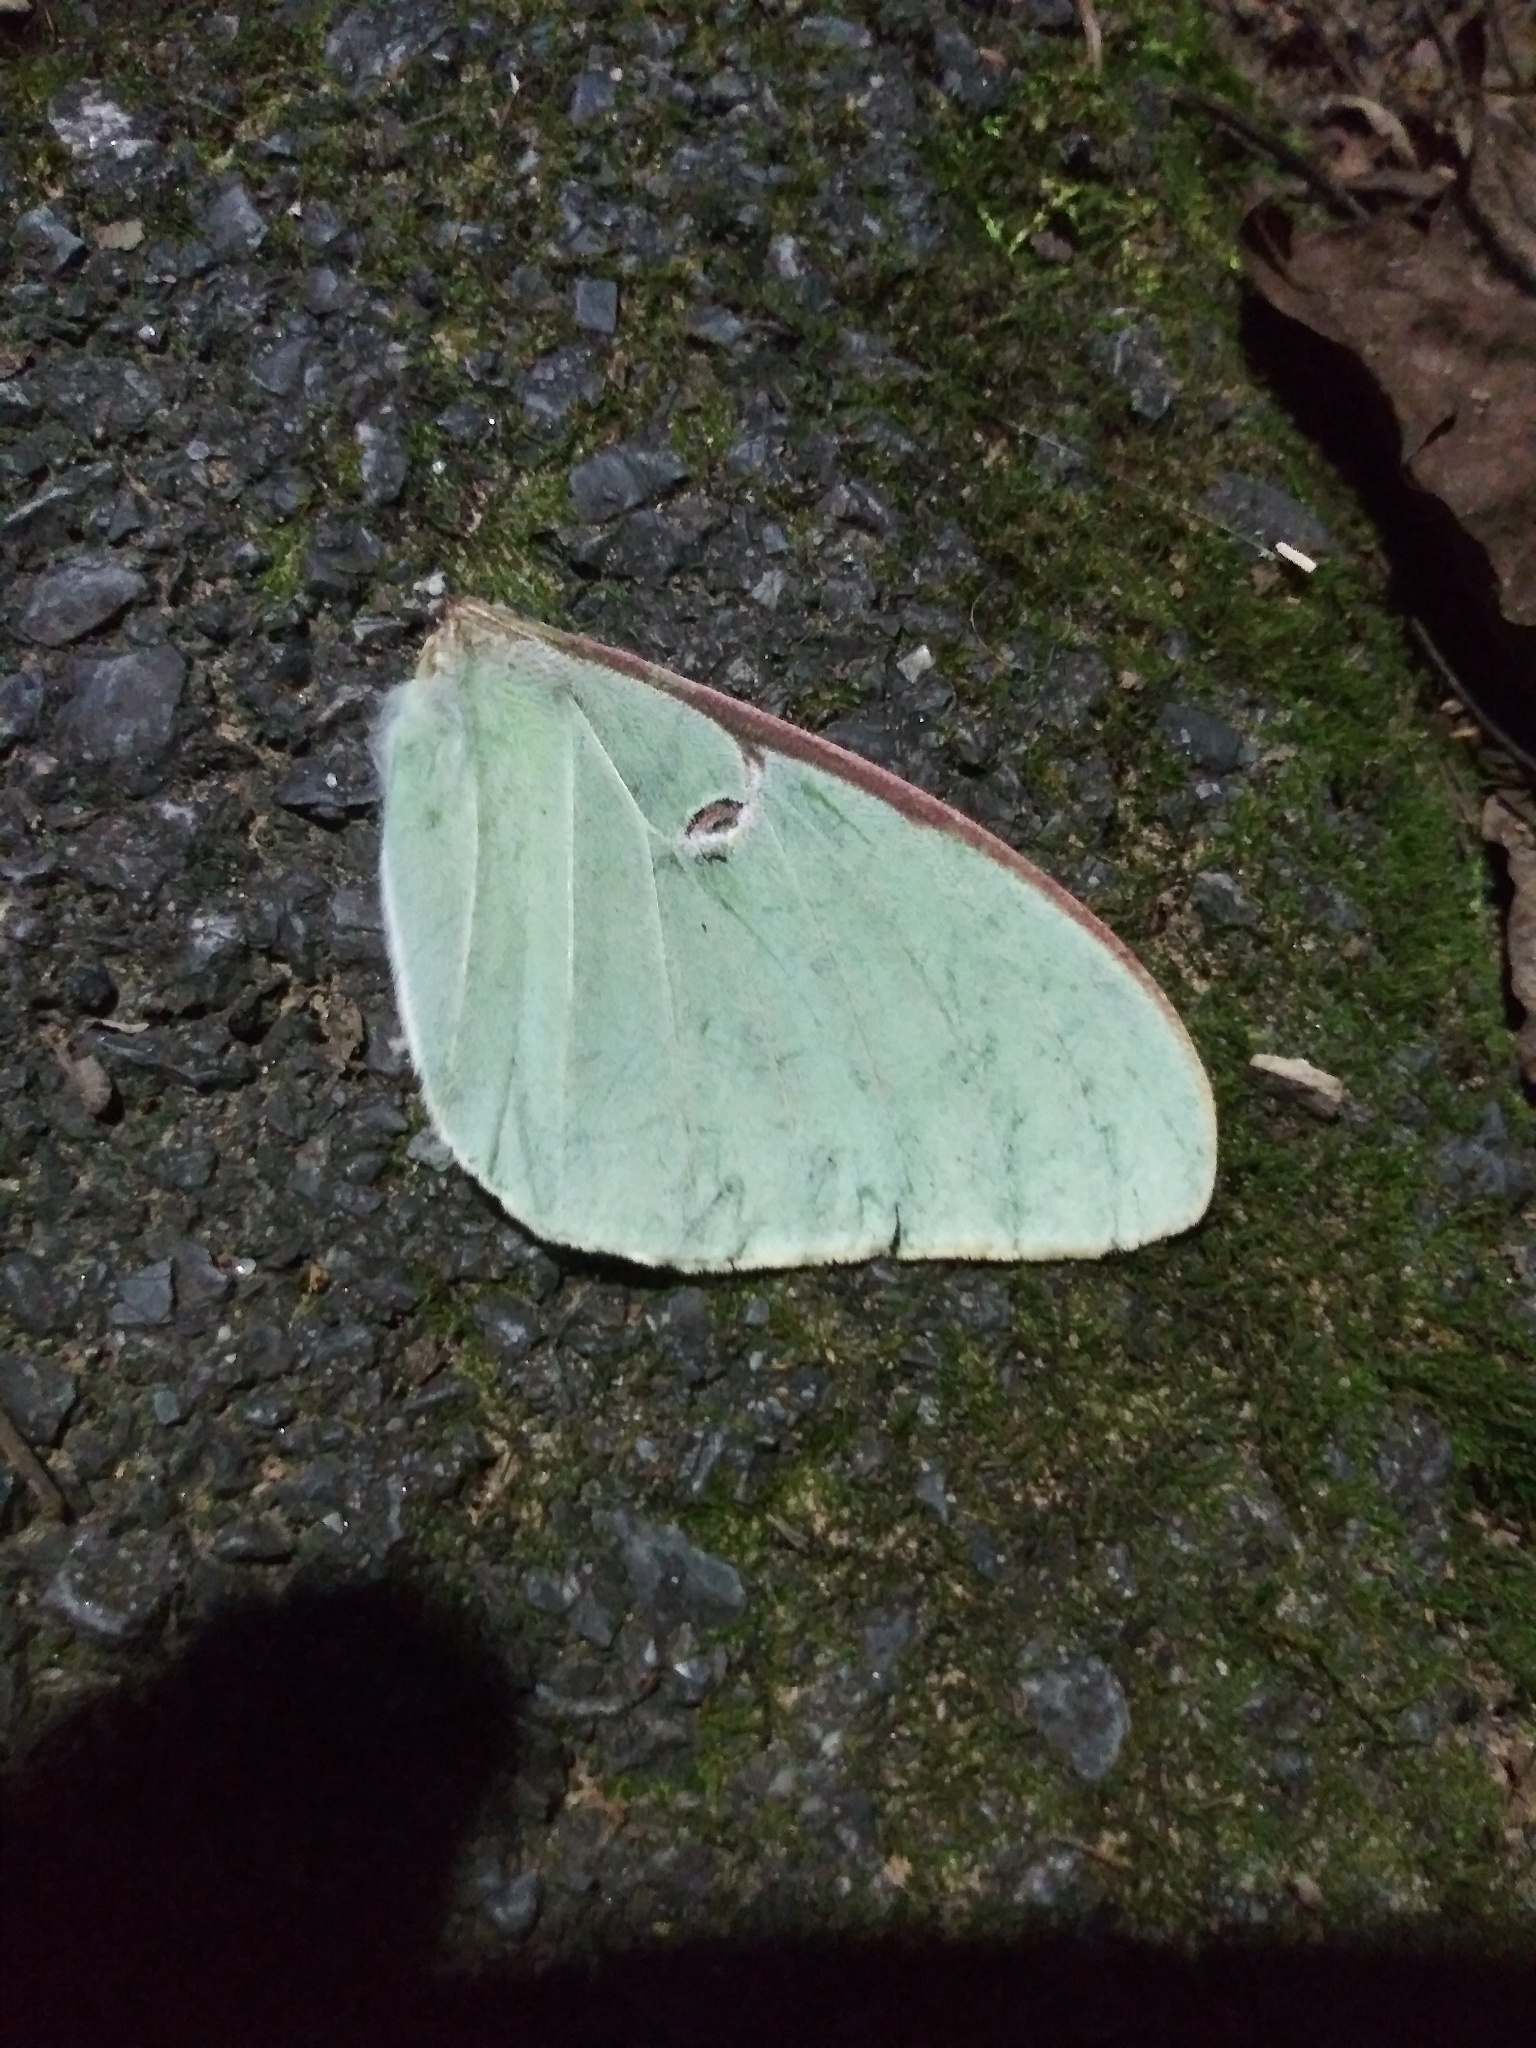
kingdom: Animalia
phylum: Arthropoda
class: Insecta
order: Lepidoptera
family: Saturniidae
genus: Actias
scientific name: Actias luna
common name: Luna moth
